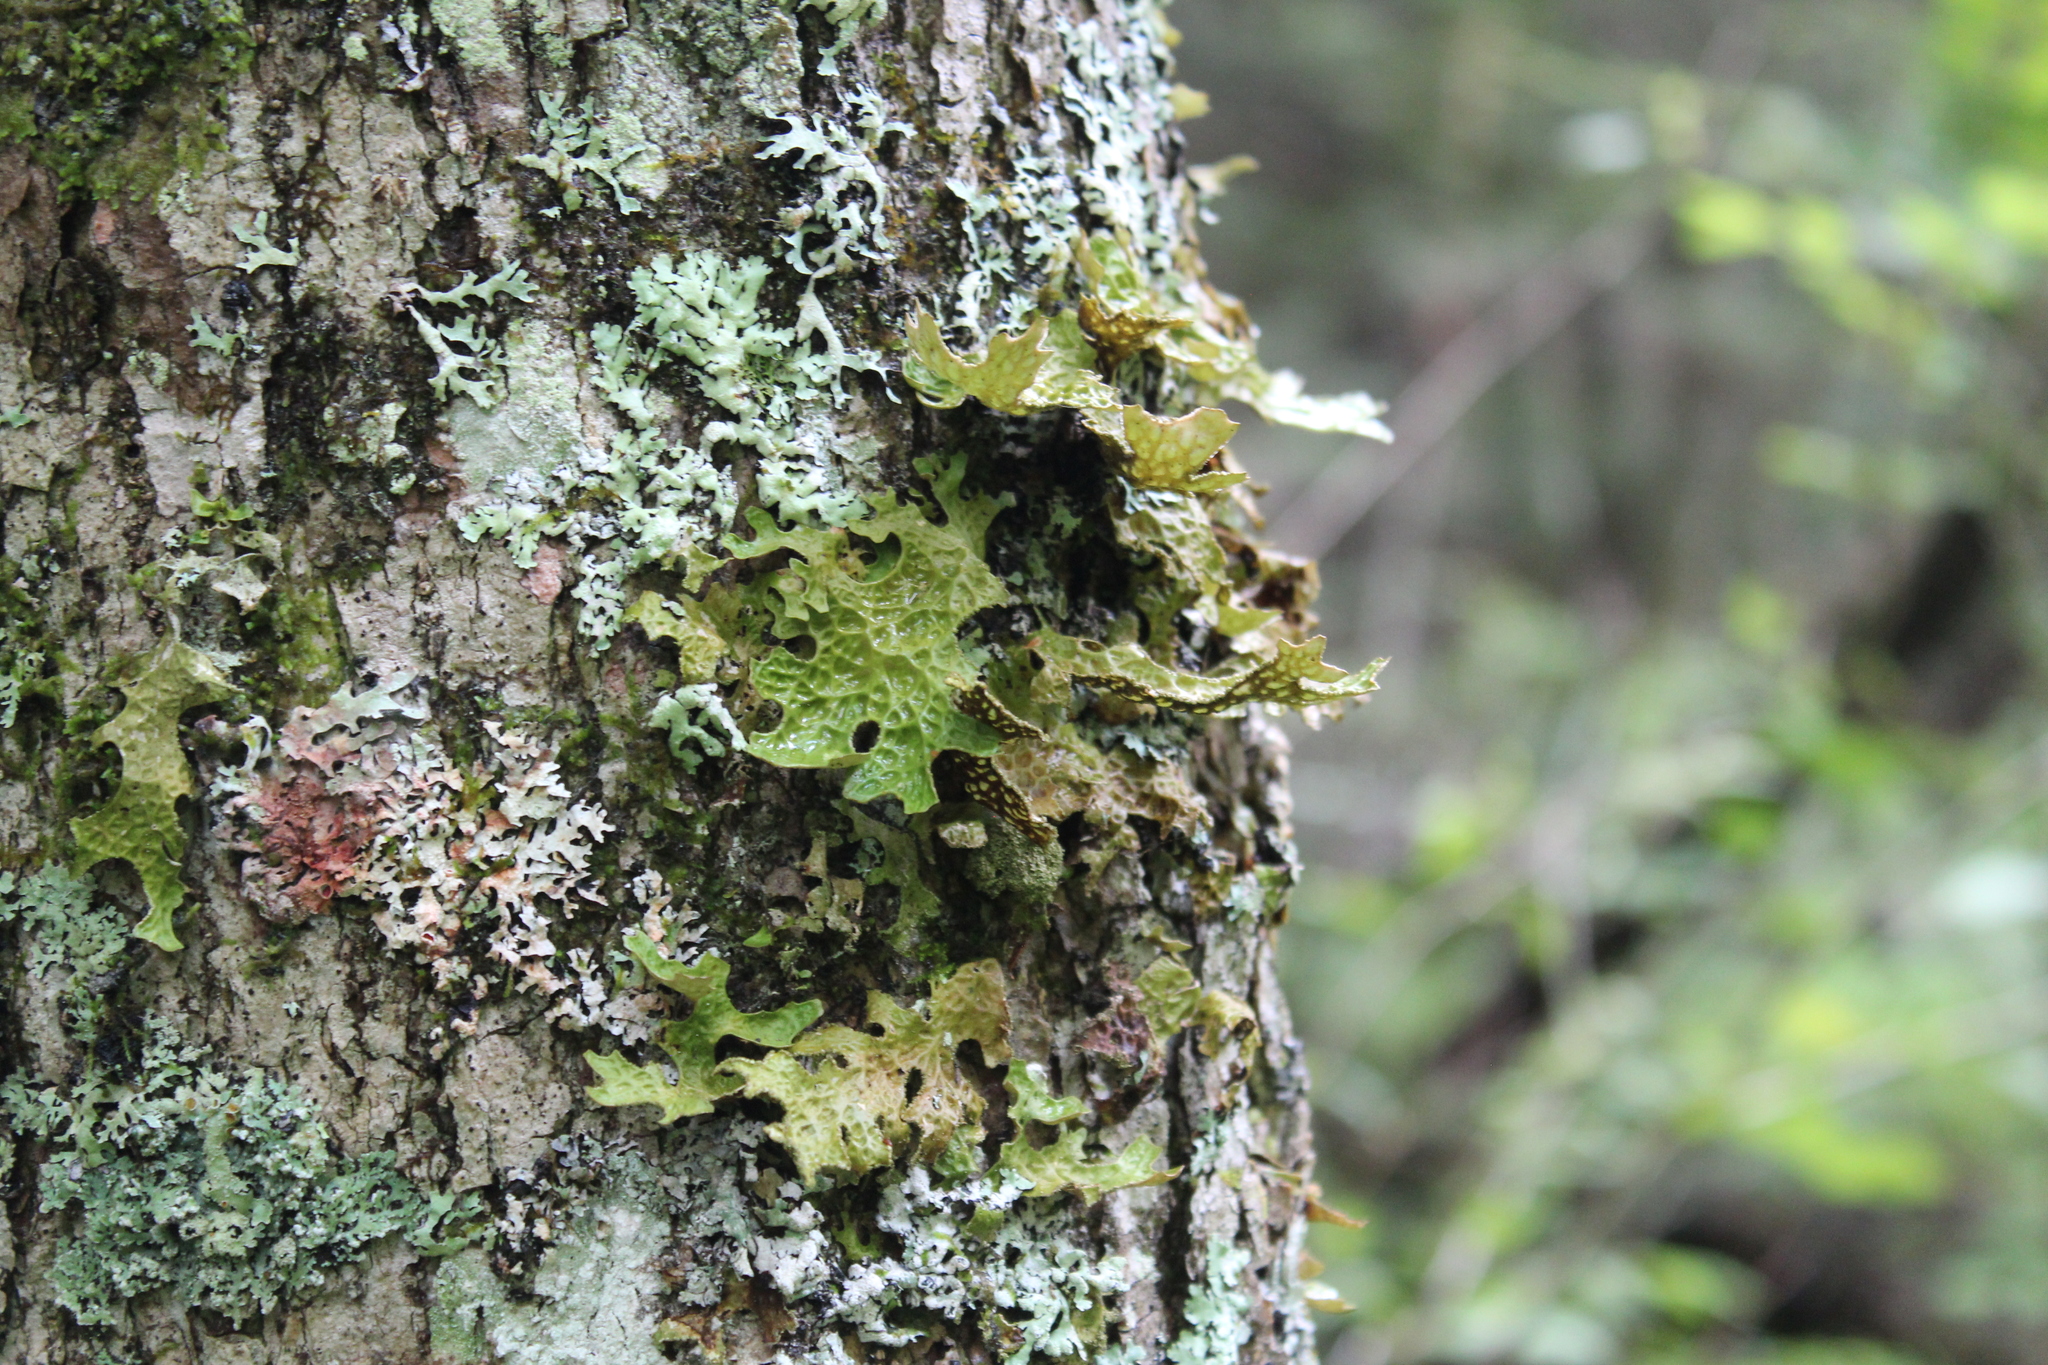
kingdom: Fungi
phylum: Ascomycota
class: Lecanoromycetes
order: Peltigerales
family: Lobariaceae
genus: Lobaria
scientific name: Lobaria pulmonaria
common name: Lungwort
